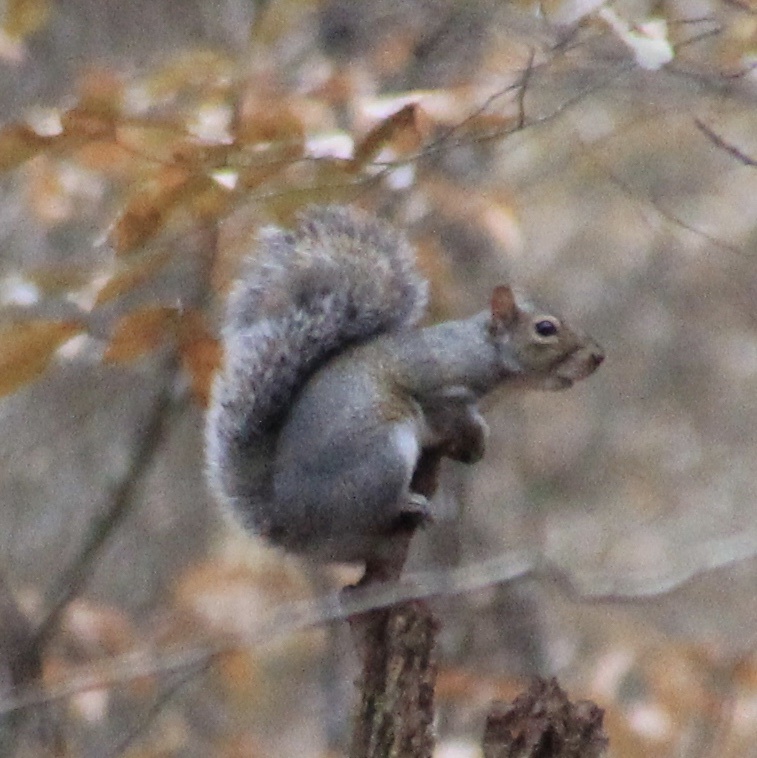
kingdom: Animalia
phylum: Chordata
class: Mammalia
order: Rodentia
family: Sciuridae
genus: Sciurus
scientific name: Sciurus carolinensis
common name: Eastern gray squirrel
